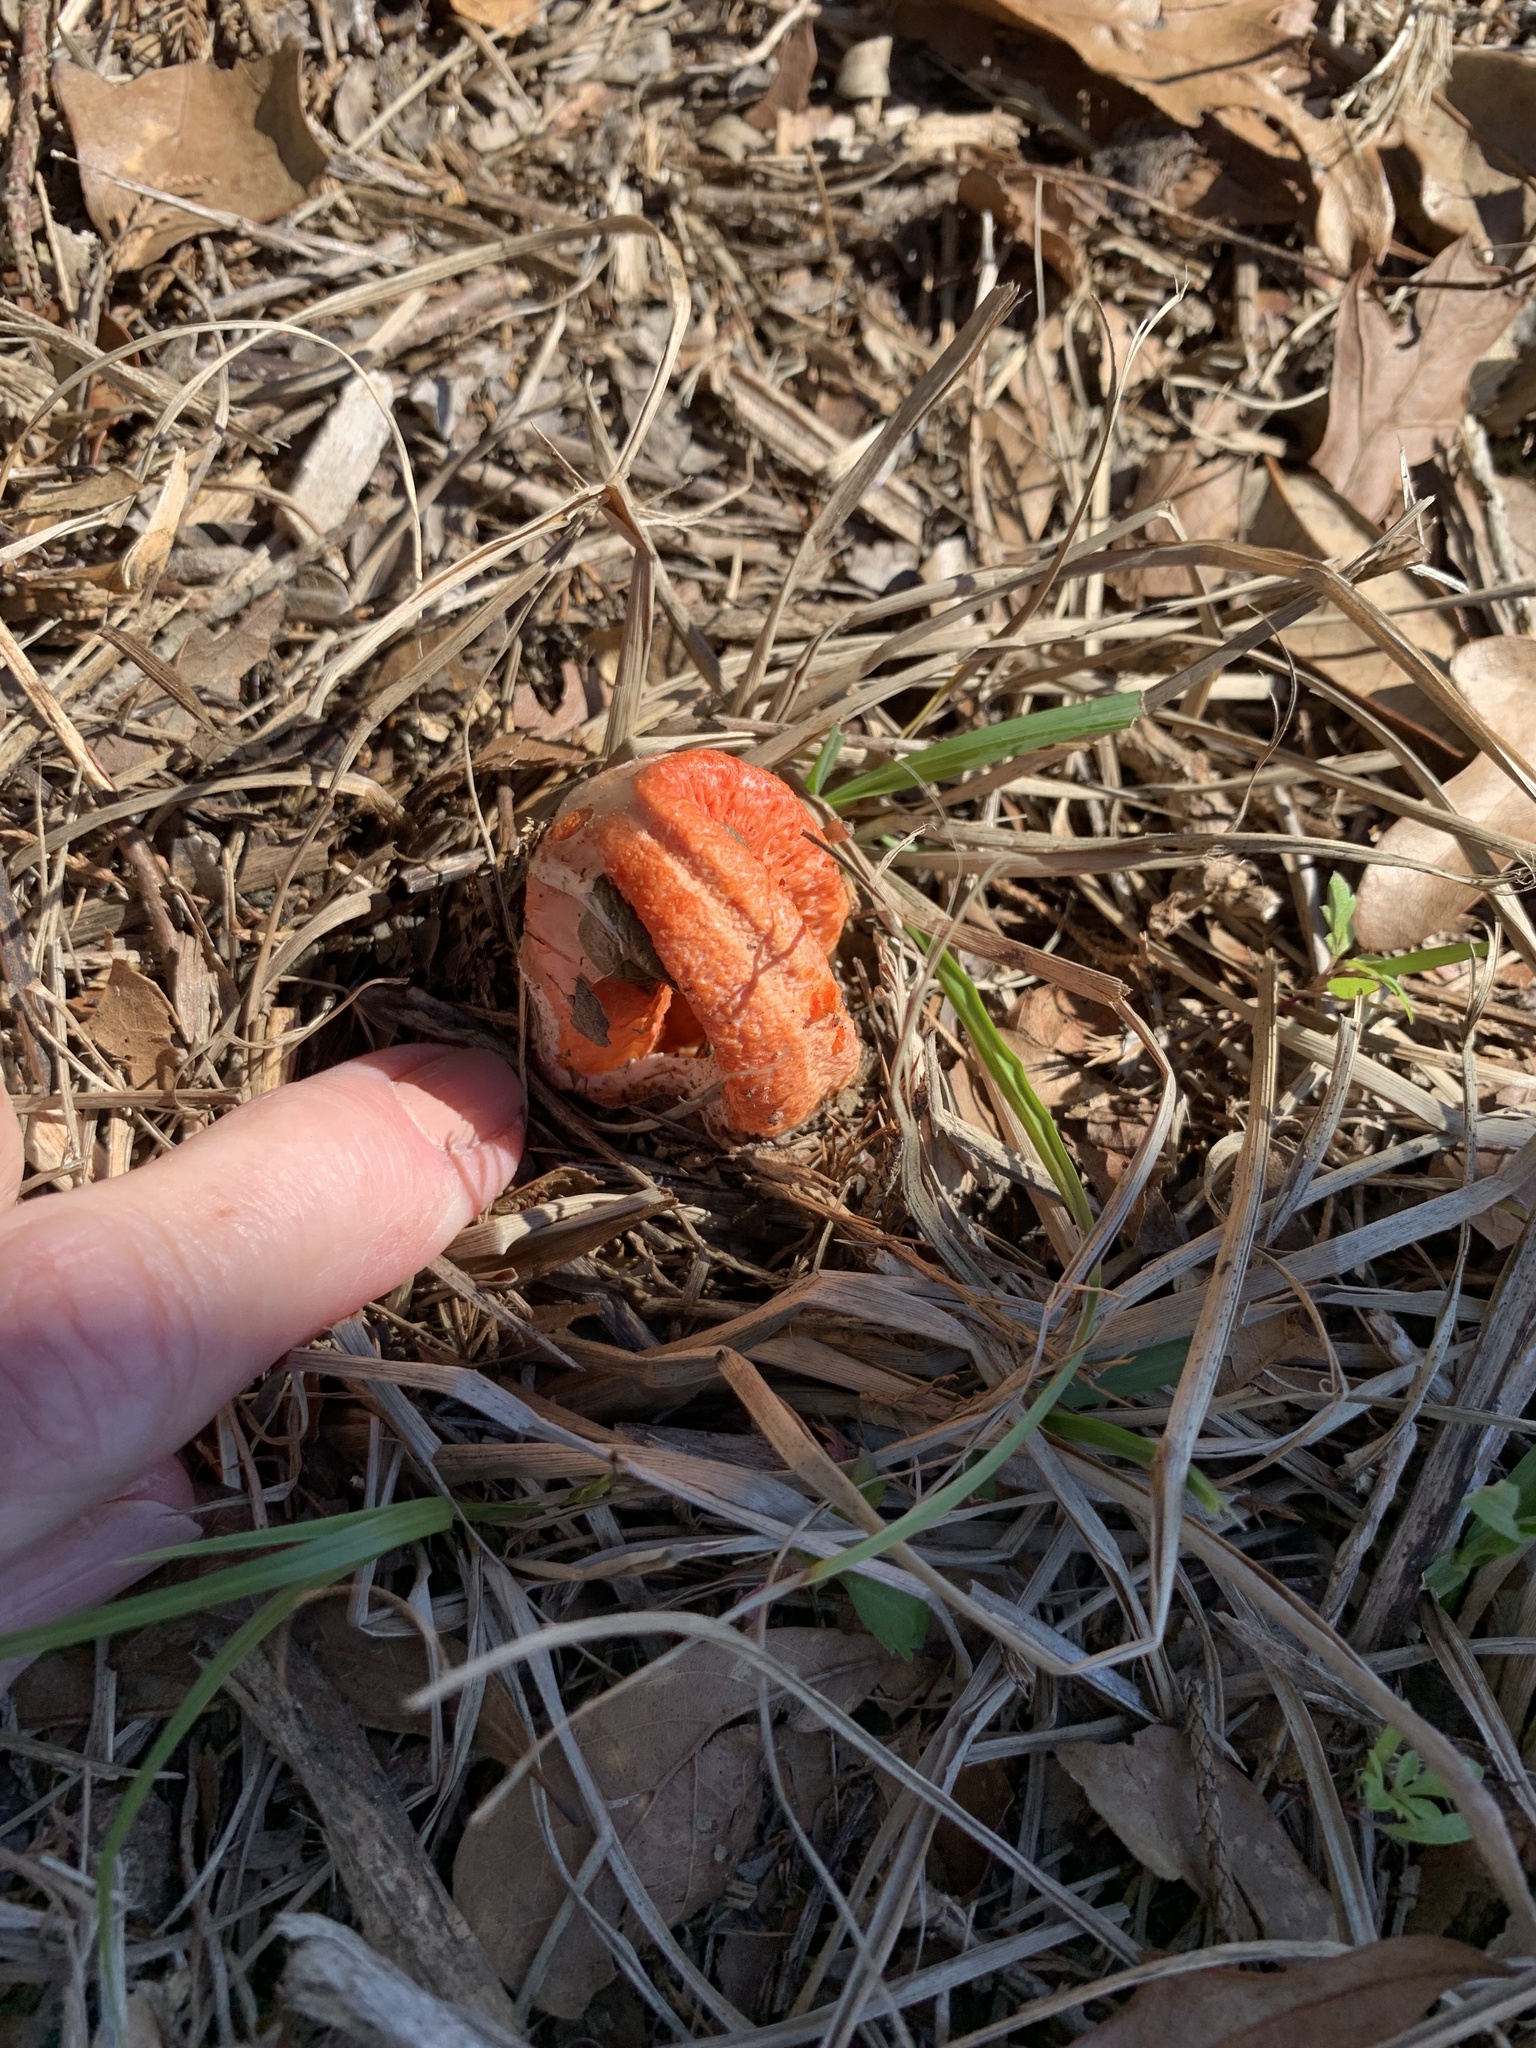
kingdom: Fungi
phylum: Basidiomycota
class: Agaricomycetes
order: Phallales
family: Phallaceae
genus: Clathrus
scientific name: Clathrus columnatus
